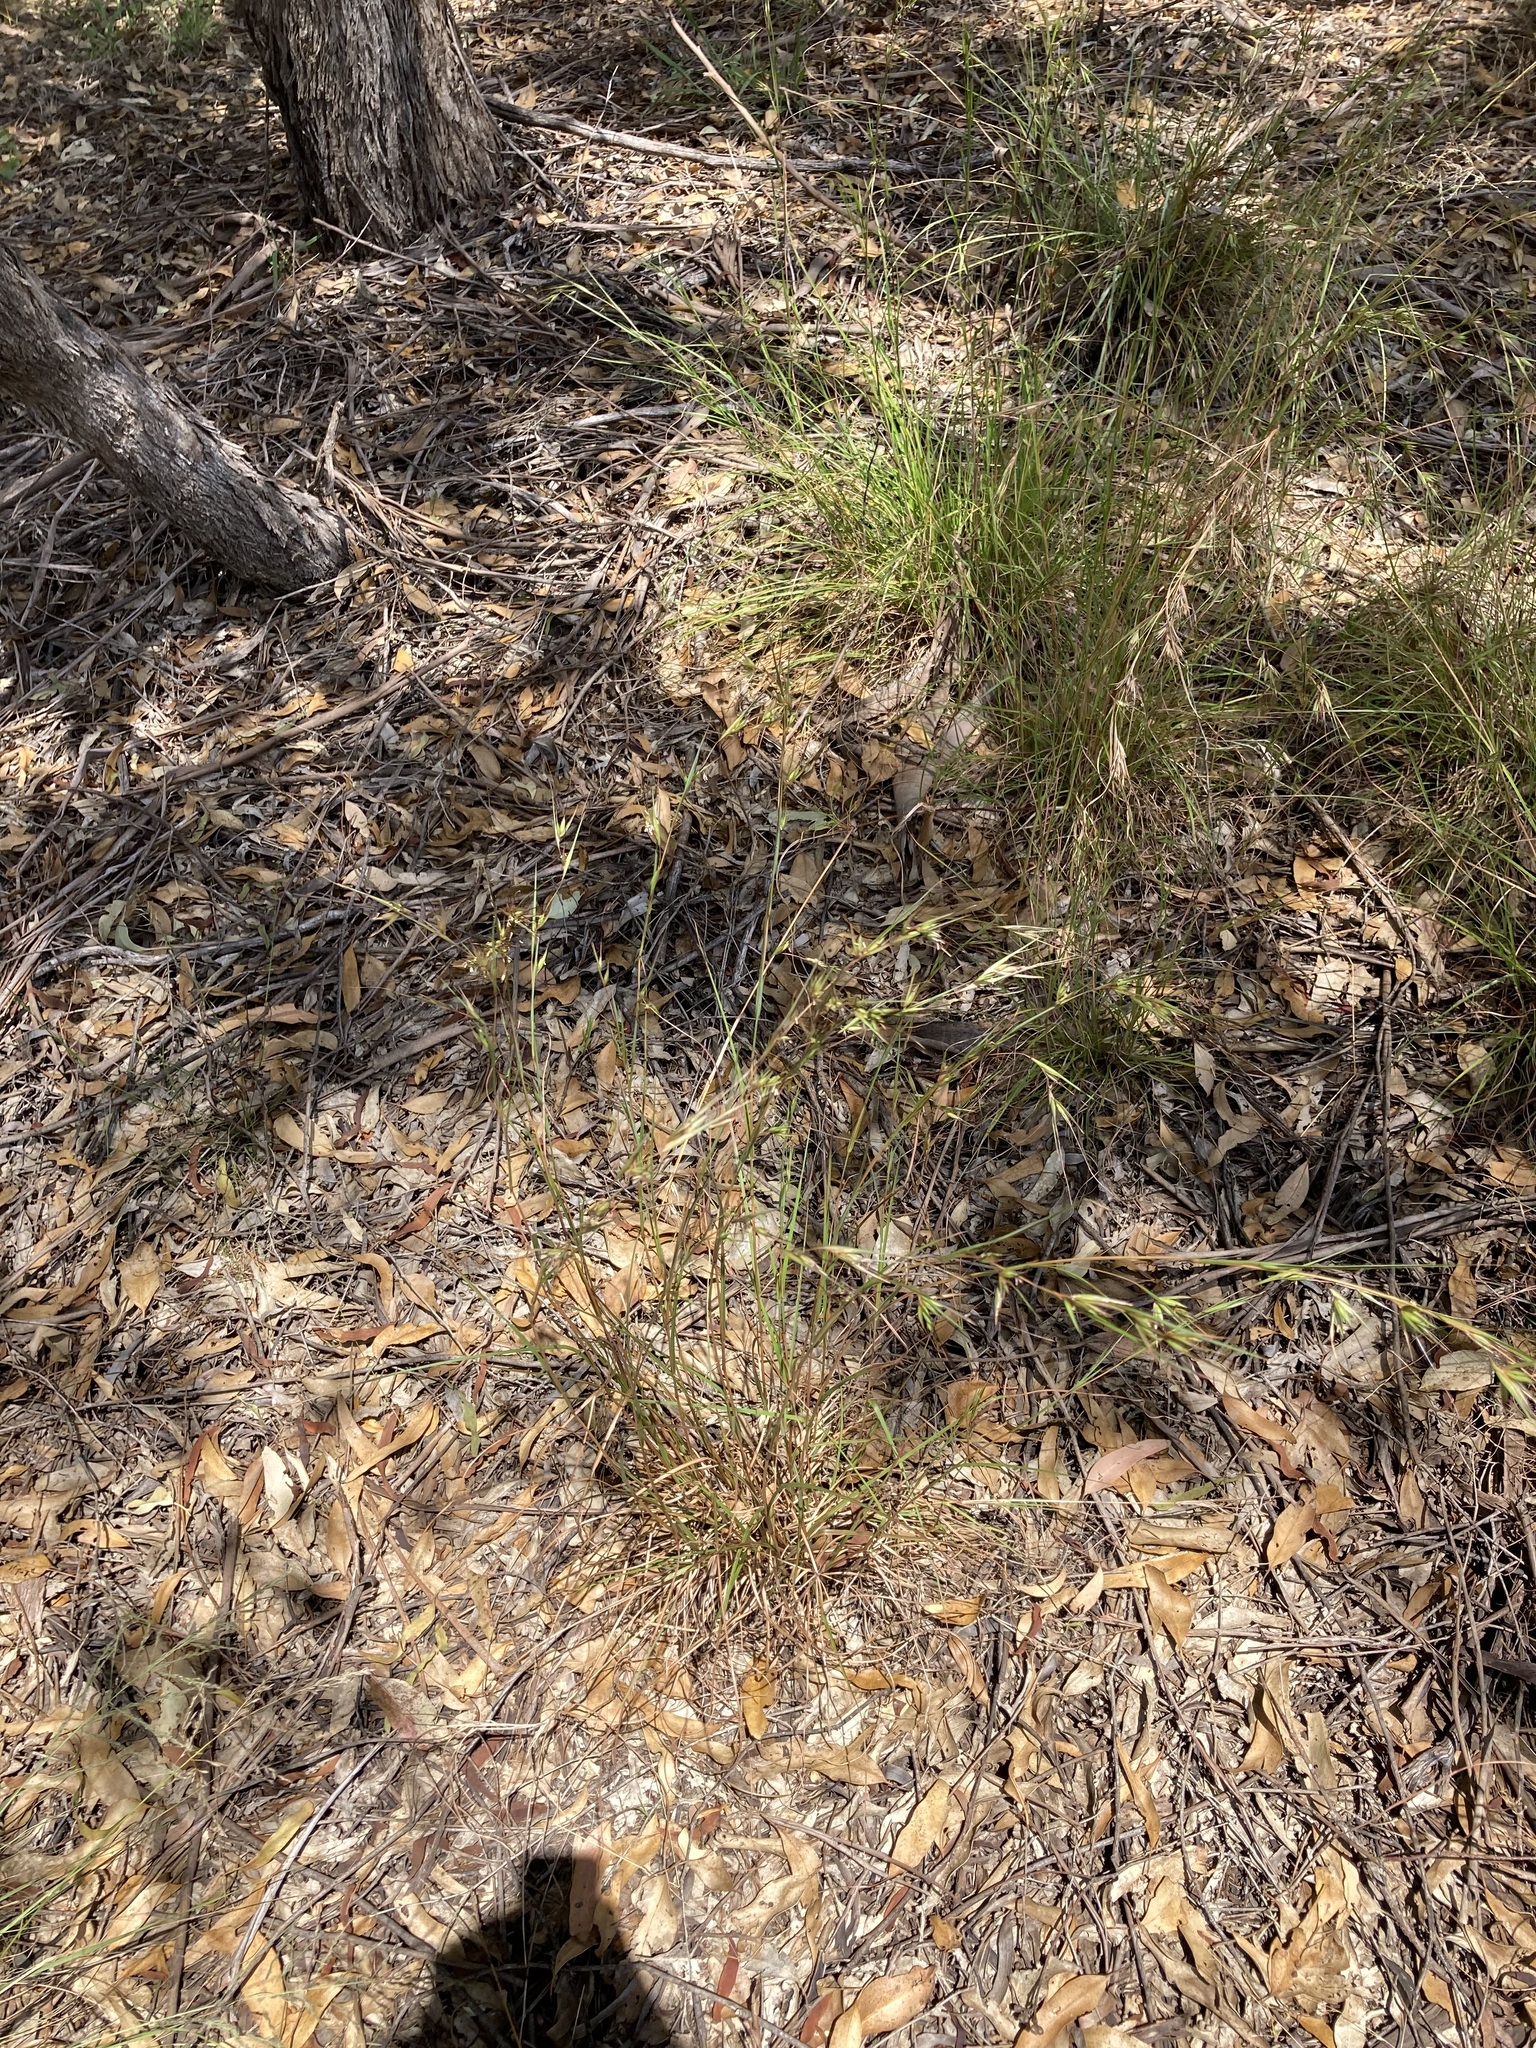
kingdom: Plantae
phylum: Tracheophyta
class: Liliopsida
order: Poales
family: Poaceae
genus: Themeda
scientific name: Themeda triandra
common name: Kangaroo grass
